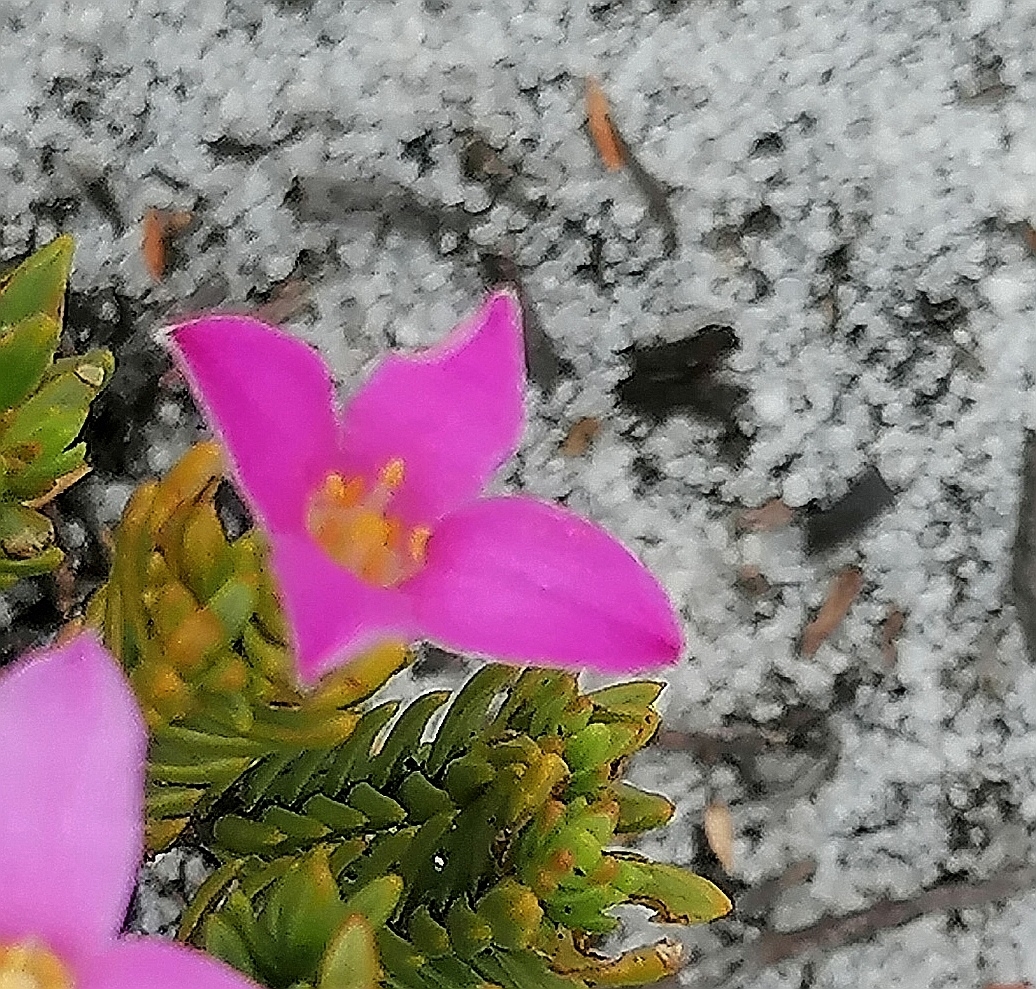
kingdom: Plantae
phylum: Tracheophyta
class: Magnoliopsida
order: Malvales
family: Thymelaeaceae
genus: Lachnaea
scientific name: Lachnaea grandiflora
